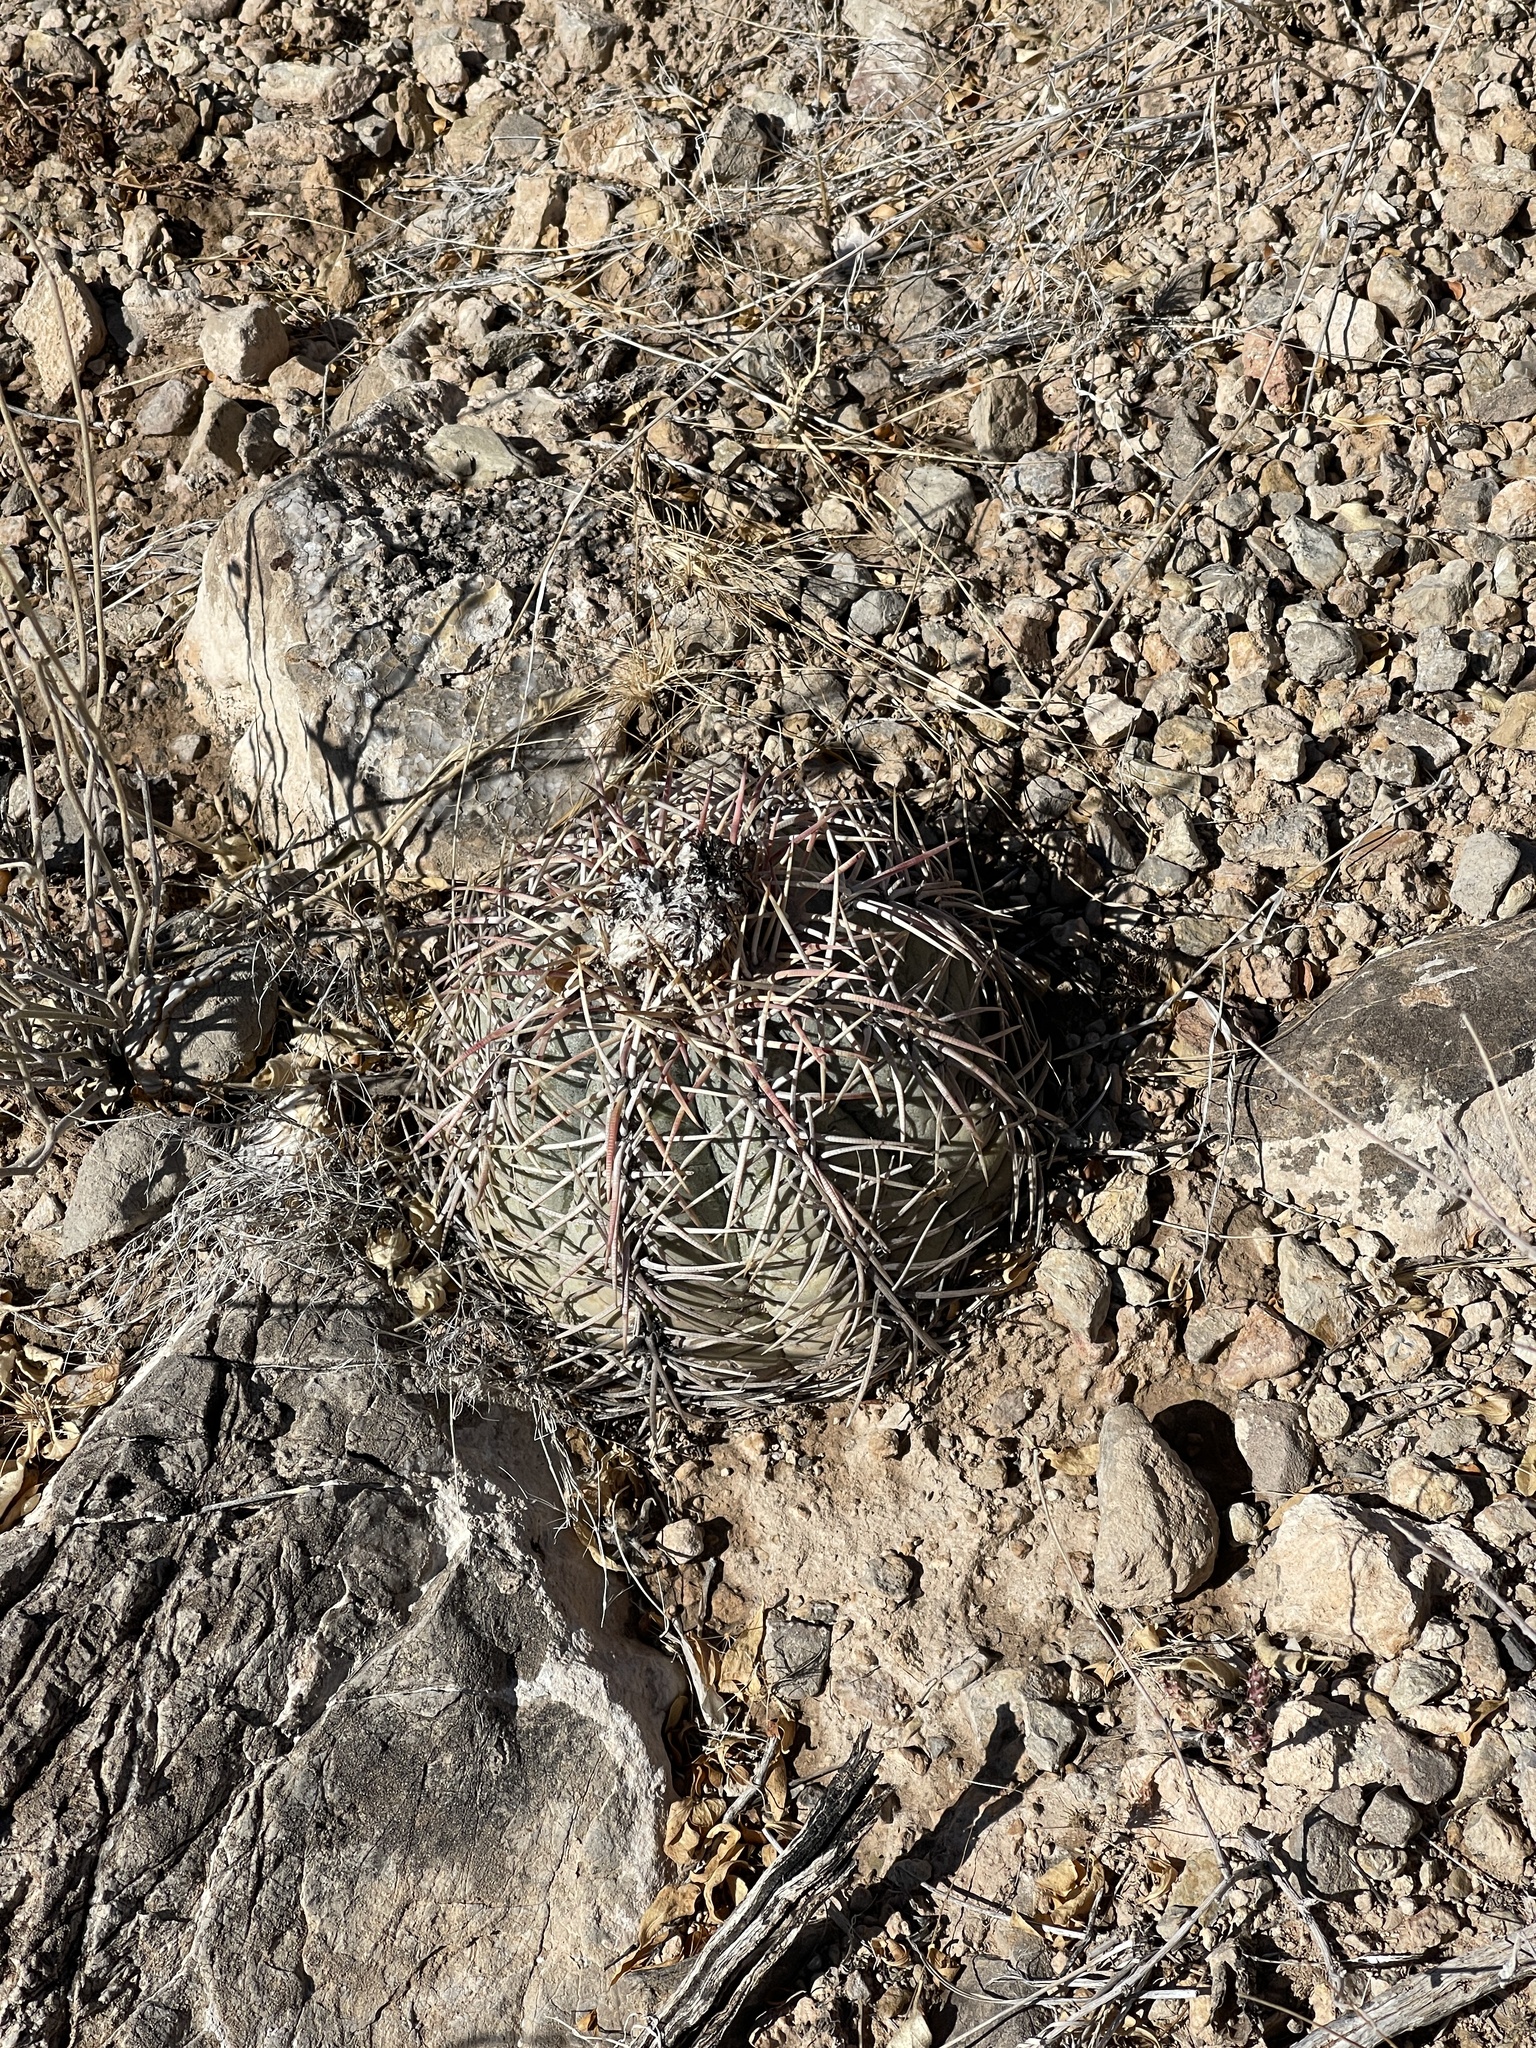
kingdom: Plantae
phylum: Tracheophyta
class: Magnoliopsida
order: Caryophyllales
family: Cactaceae
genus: Echinocactus
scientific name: Echinocactus horizonthalonius
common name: Devilshead
